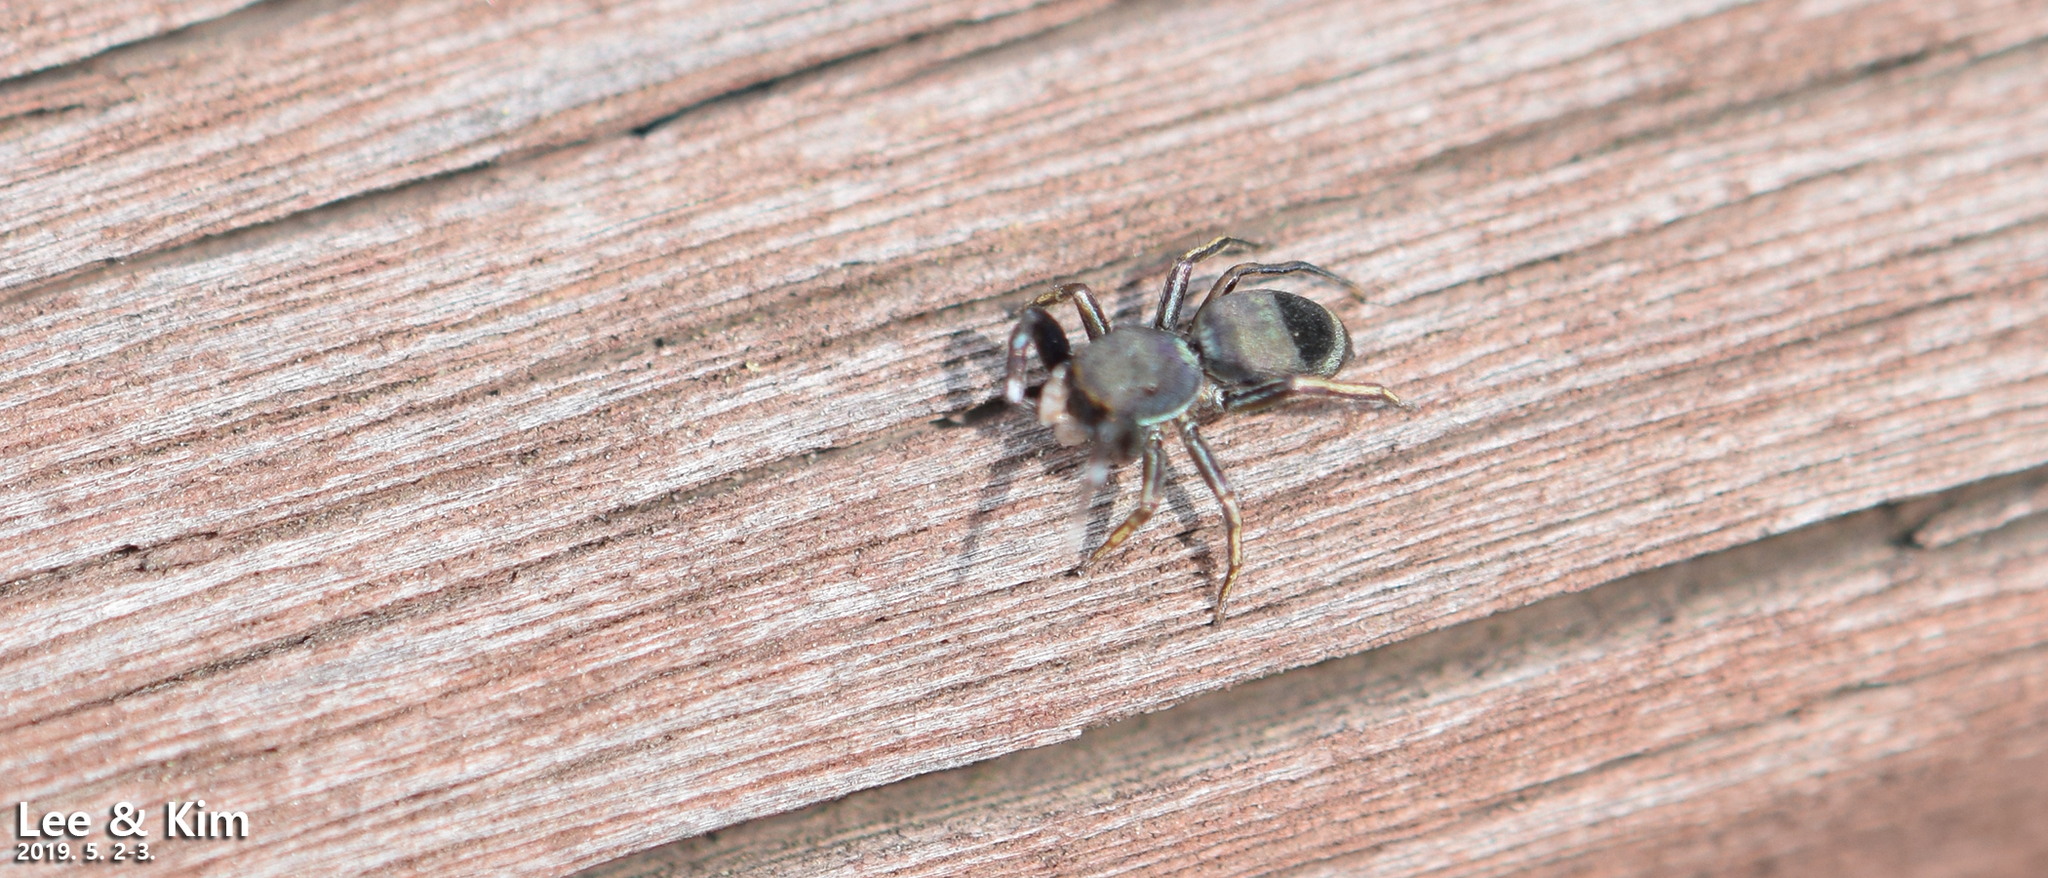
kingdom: Animalia
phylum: Arthropoda
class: Arachnida
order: Araneae
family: Salticidae
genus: Siler
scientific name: Siler cupreus
